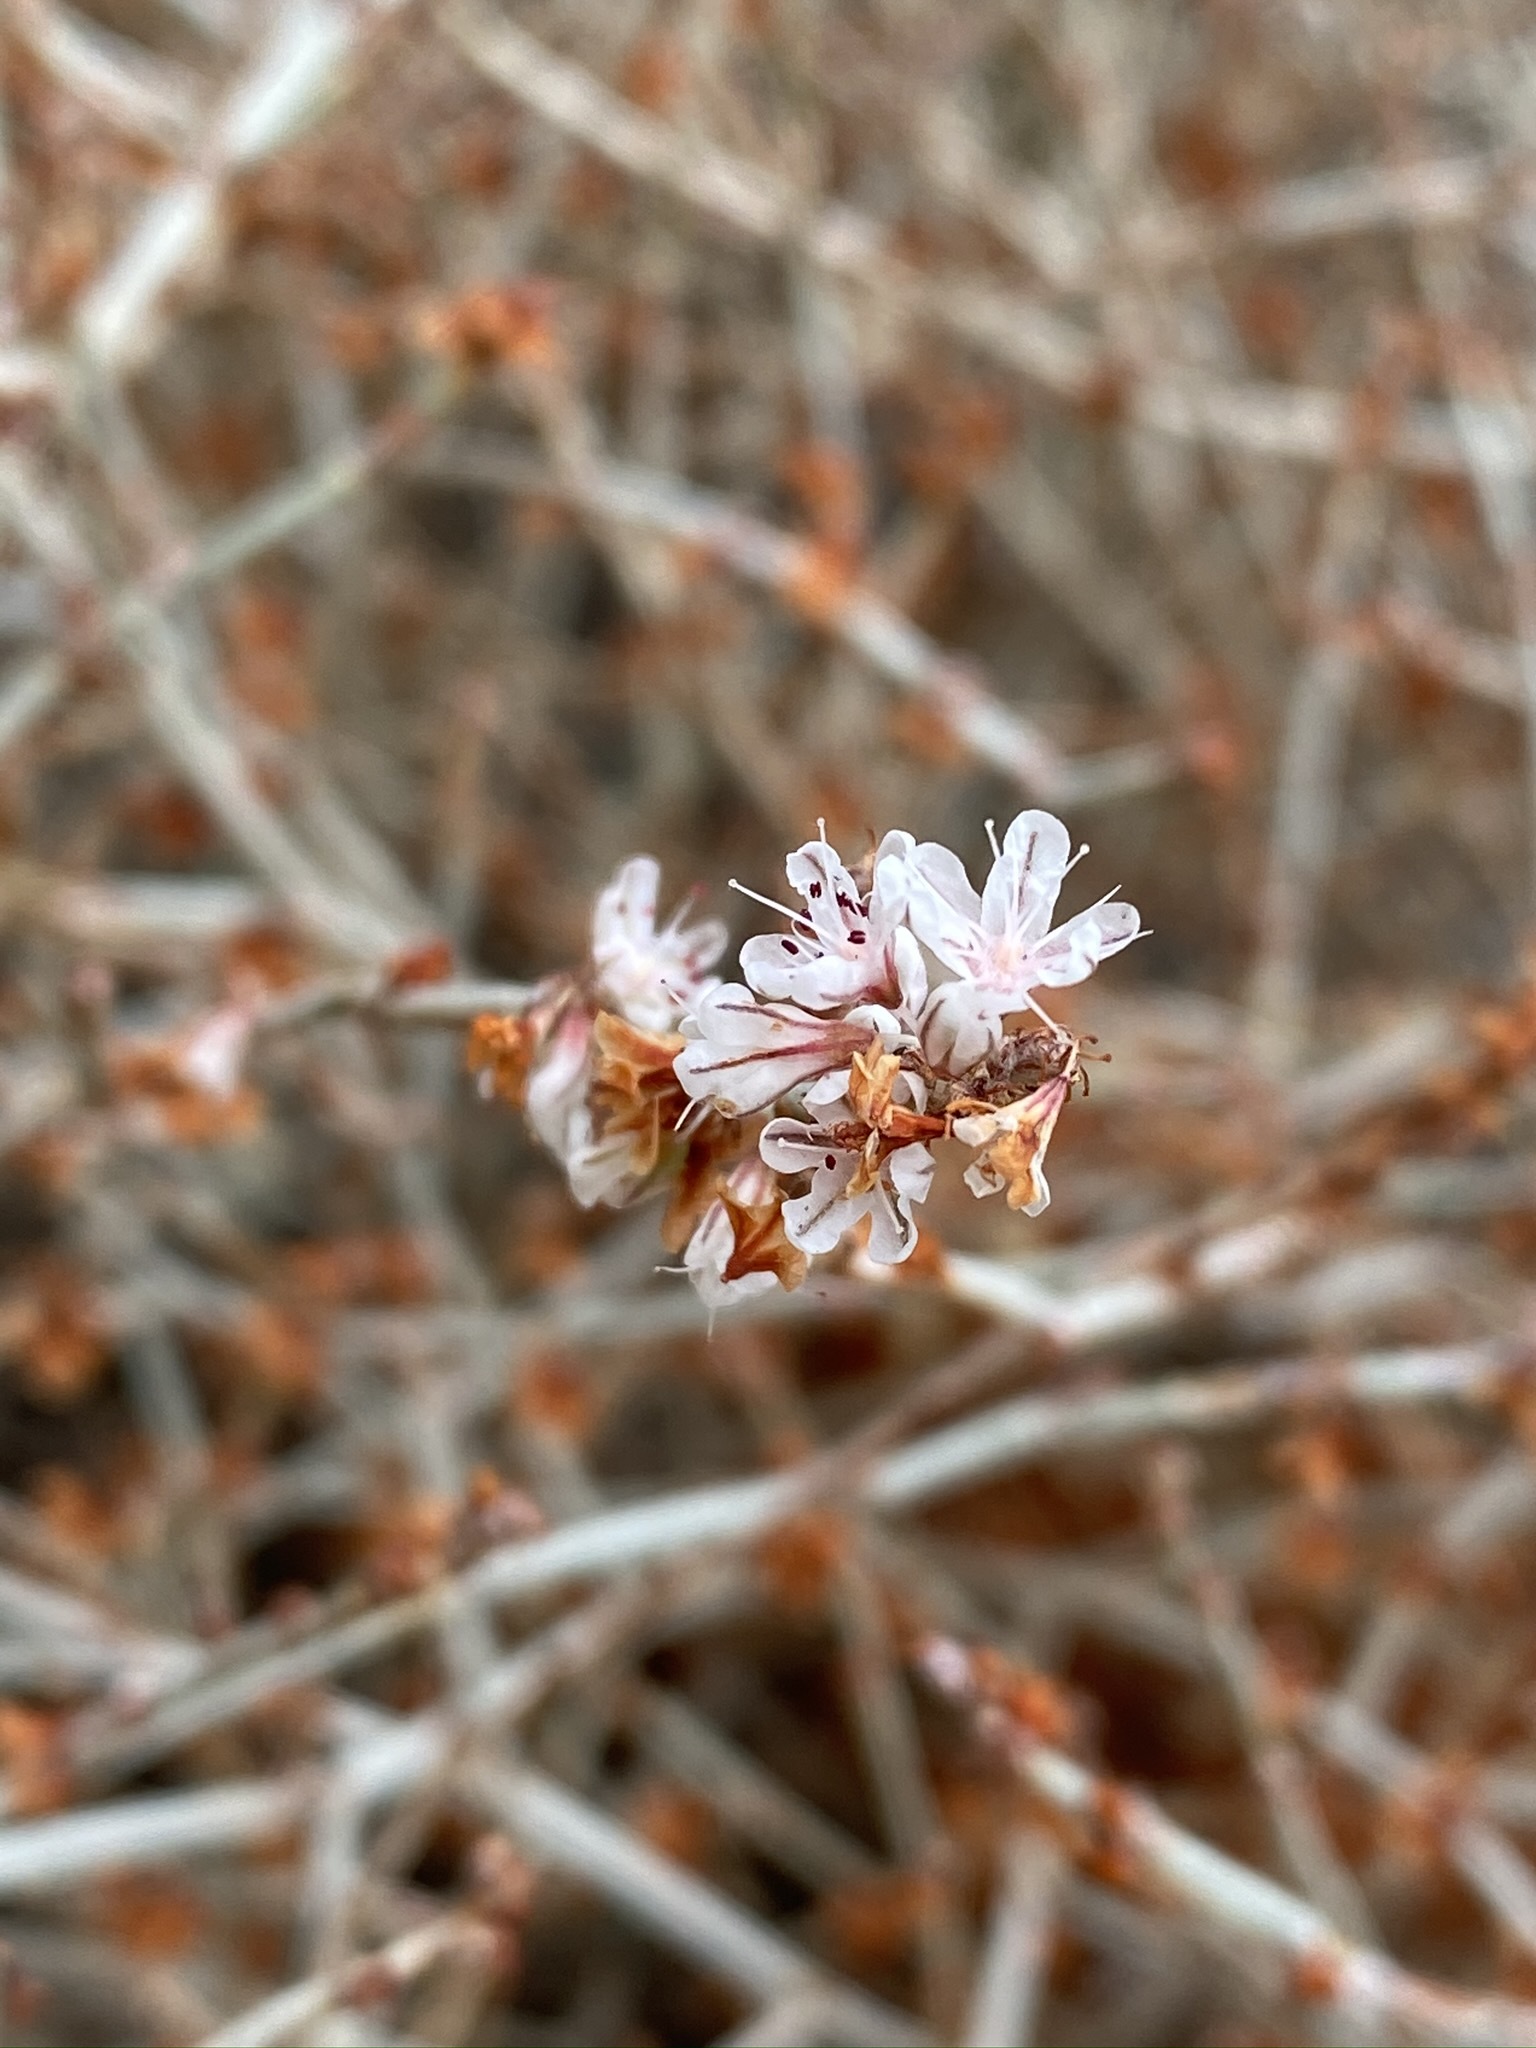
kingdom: Plantae
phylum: Tracheophyta
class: Magnoliopsida
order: Caryophyllales
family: Polygonaceae
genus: Eriogonum
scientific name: Eriogonum wrightii
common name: Bastard-sage
